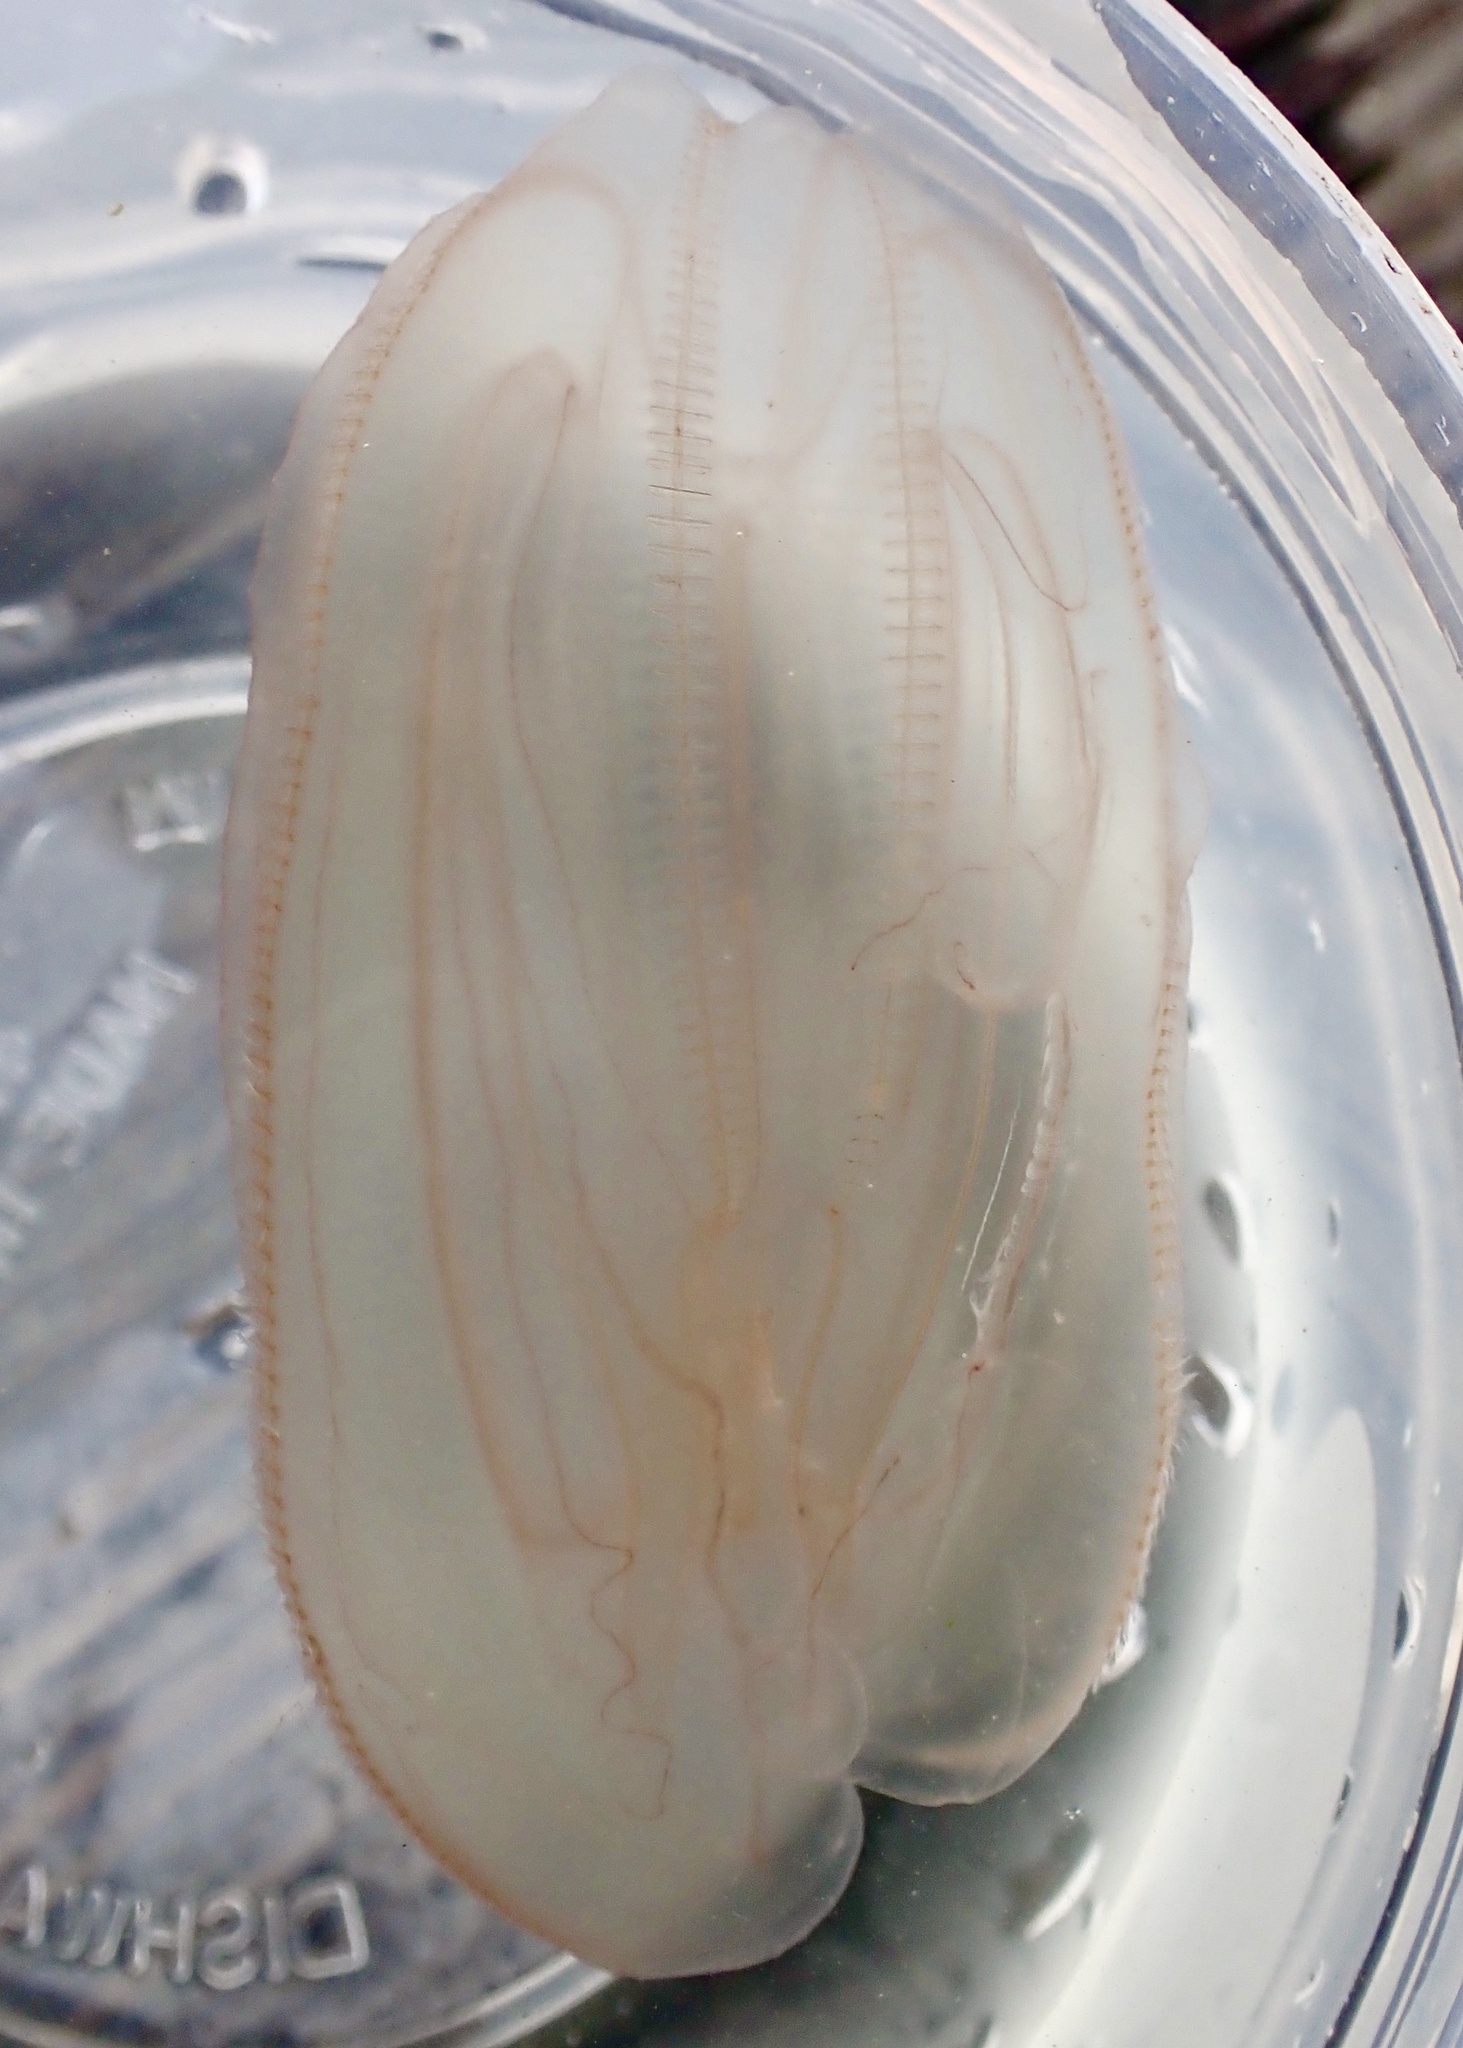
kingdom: Animalia
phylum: Ctenophora
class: Tentaculata
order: Lobata
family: Bolinopsidae
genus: Mnemiopsis
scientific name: Mnemiopsis leidyi
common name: American comb jelly
